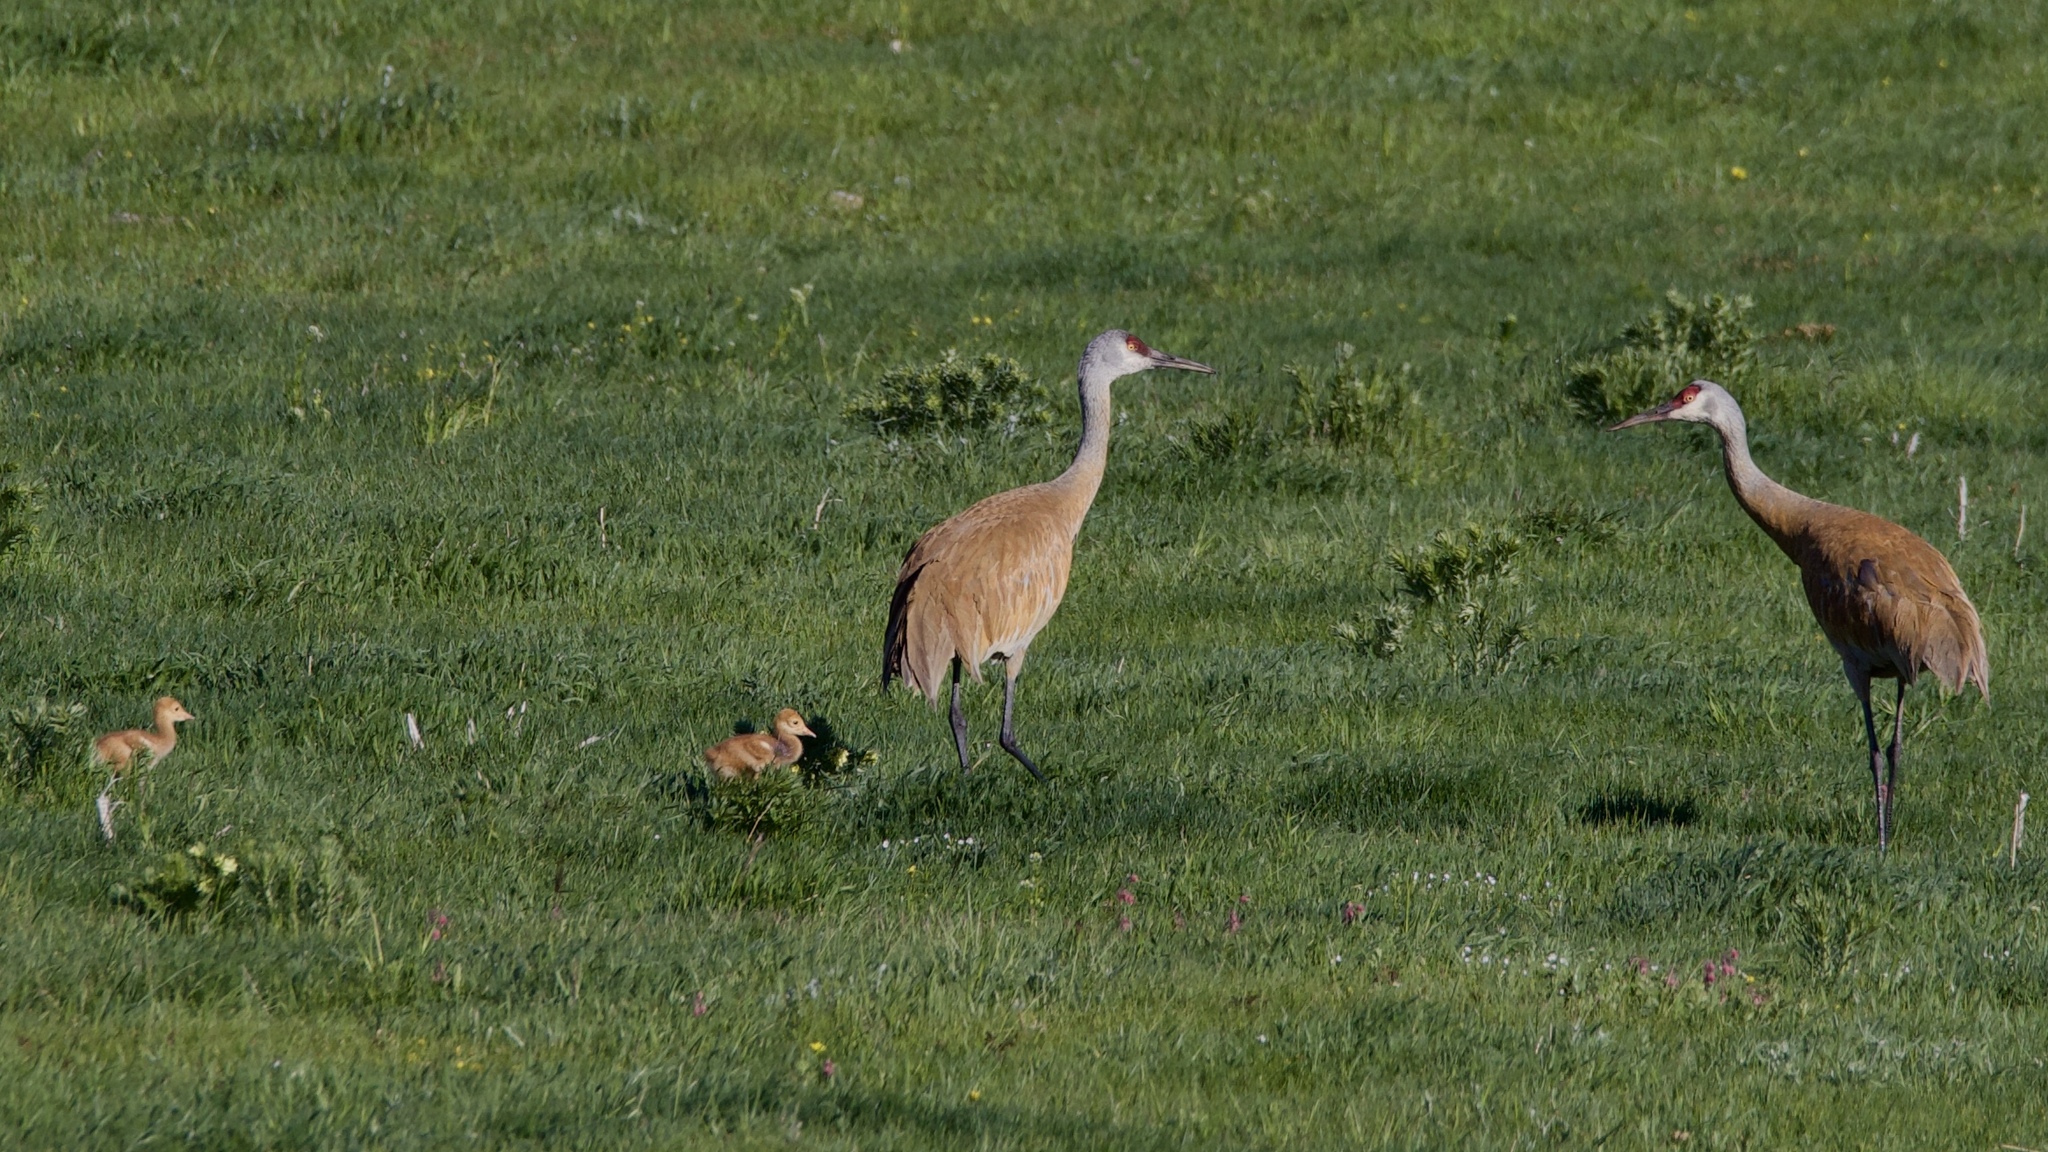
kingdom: Animalia
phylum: Chordata
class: Aves
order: Gruiformes
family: Gruidae
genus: Grus
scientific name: Grus canadensis
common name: Sandhill crane
